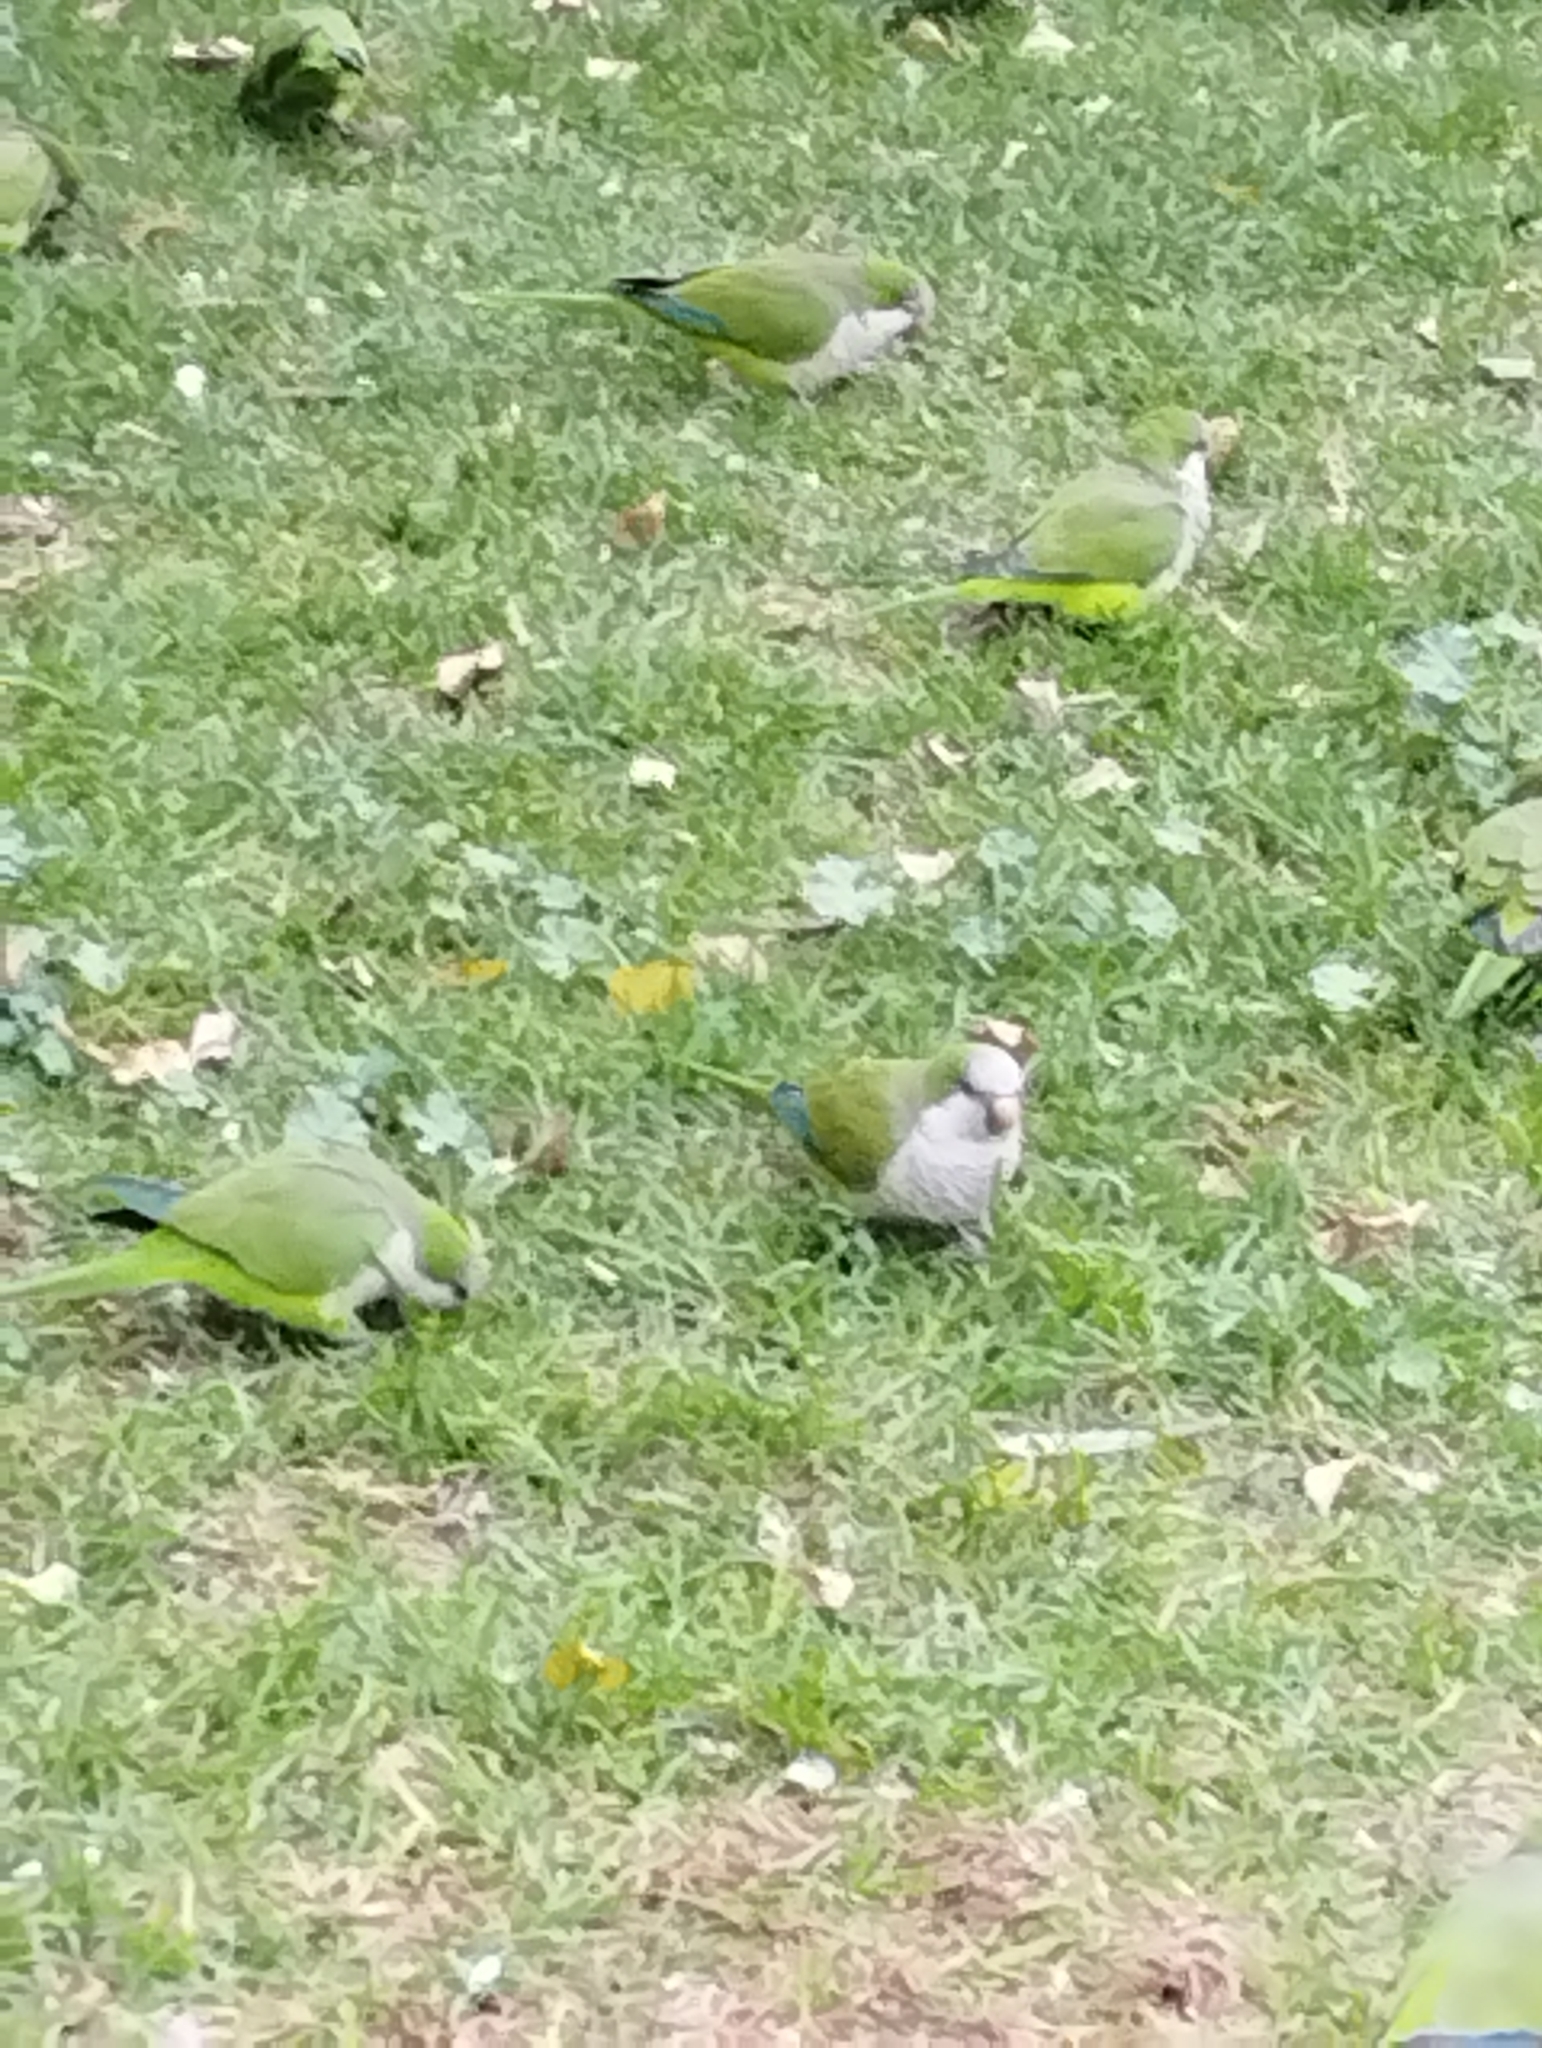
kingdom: Animalia
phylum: Chordata
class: Aves
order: Psittaciformes
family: Psittacidae
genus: Myiopsitta
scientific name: Myiopsitta monachus
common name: Monk parakeet
